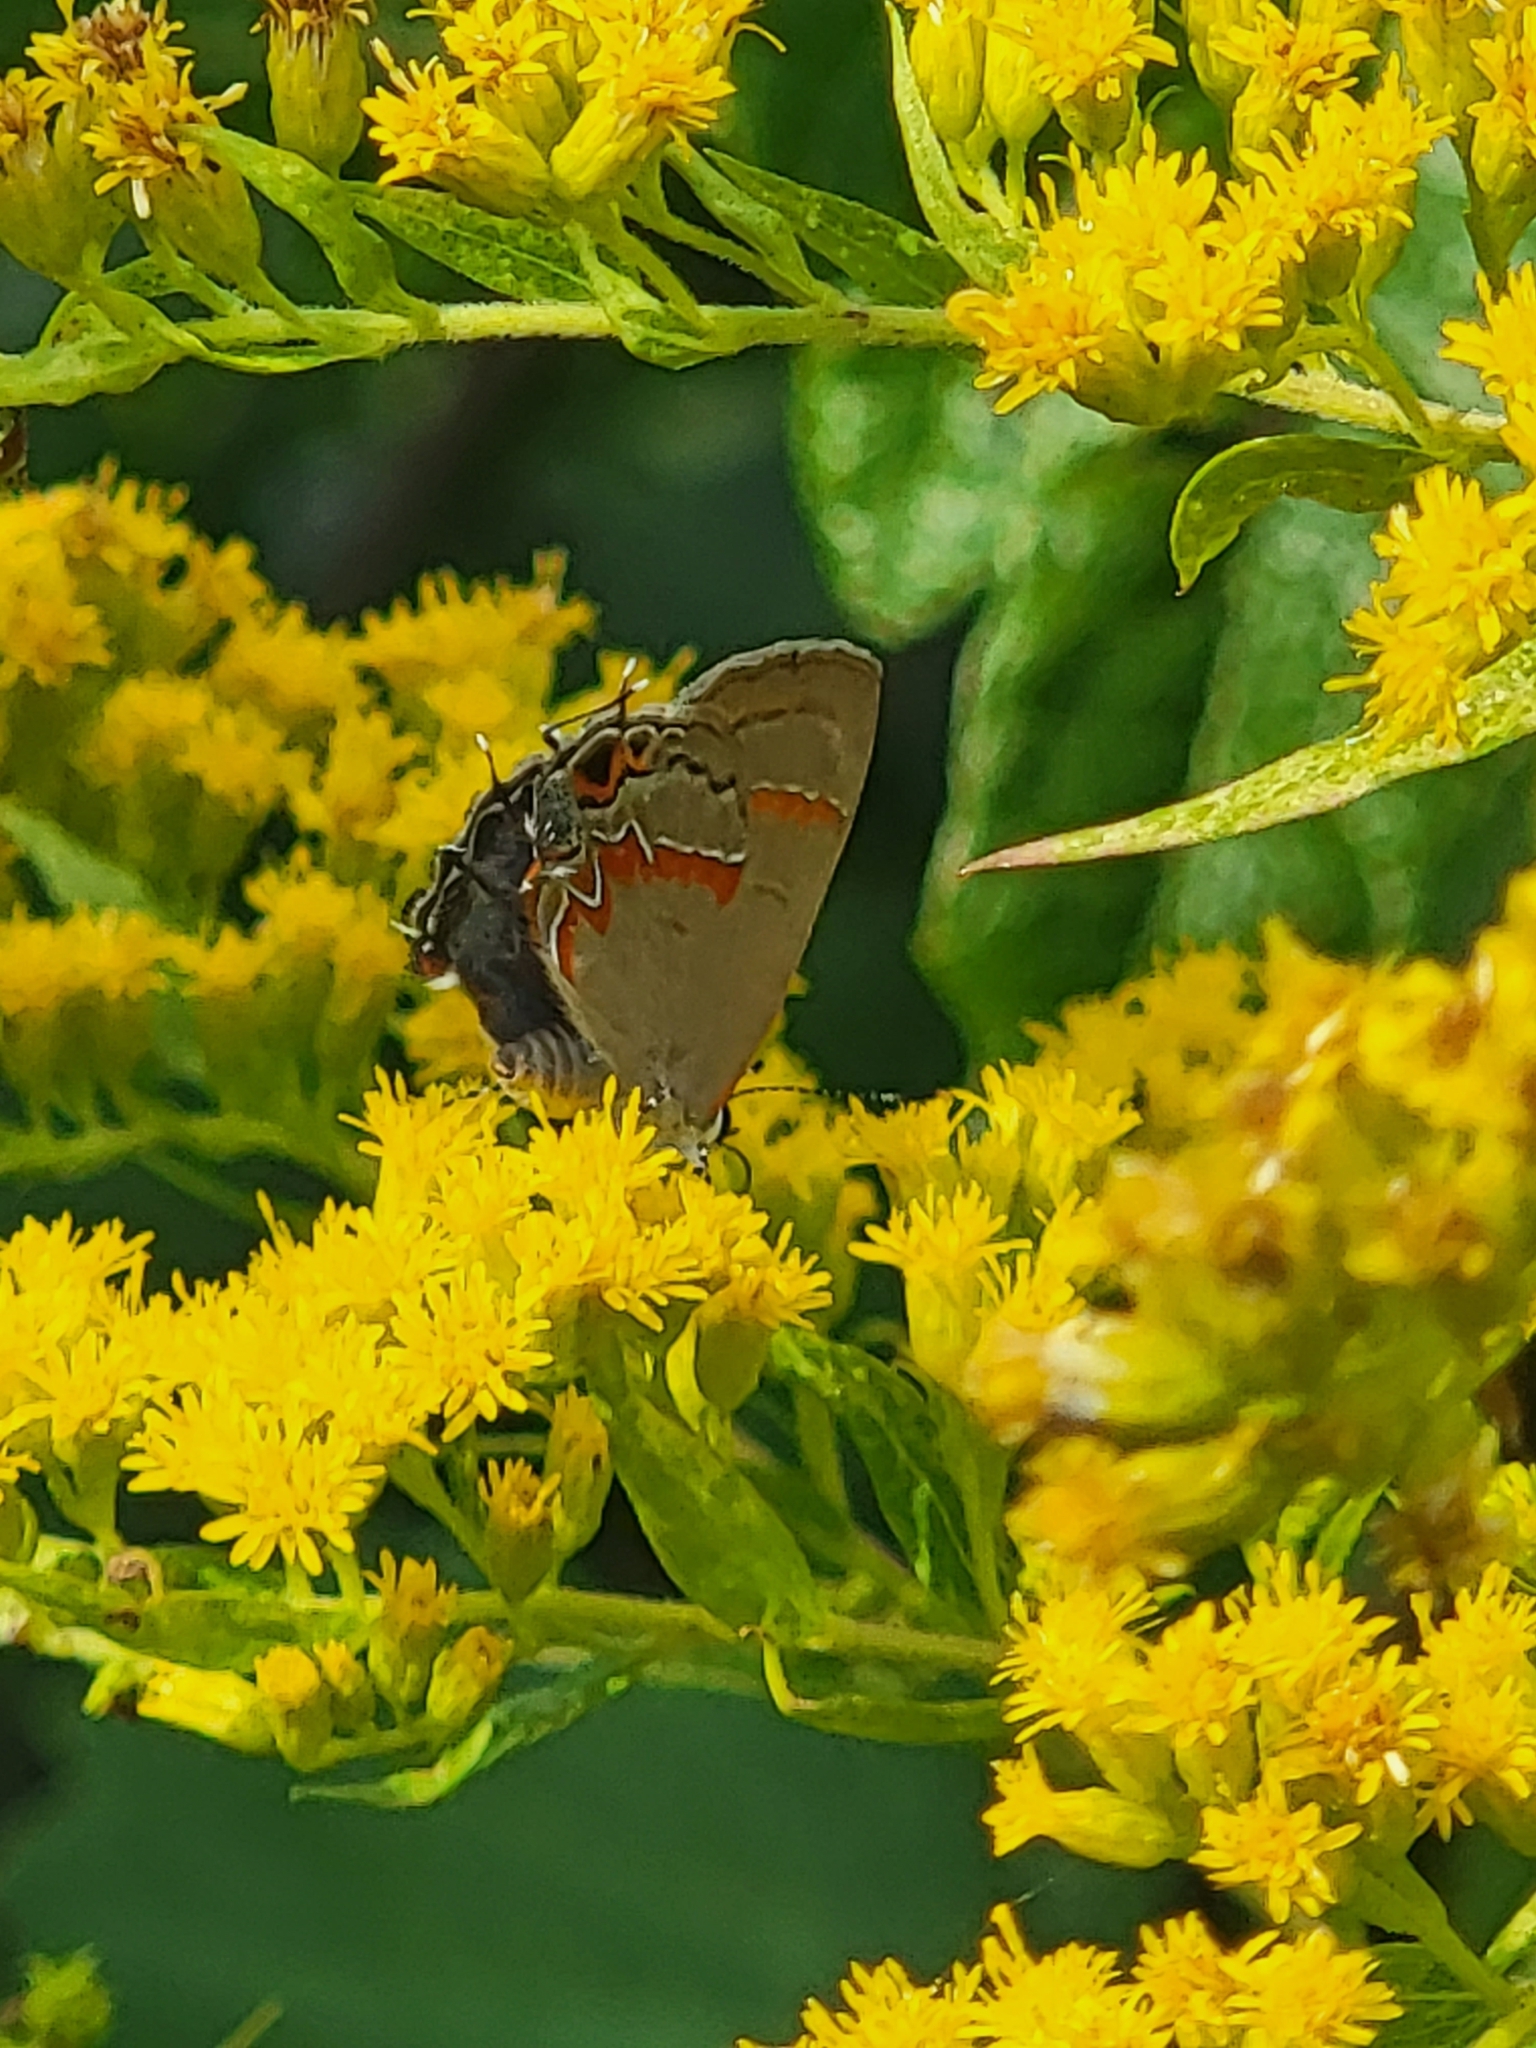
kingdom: Animalia
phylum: Arthropoda
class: Insecta
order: Lepidoptera
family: Lycaenidae
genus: Calycopis
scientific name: Calycopis cecrops
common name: Red-banded hairstreak
